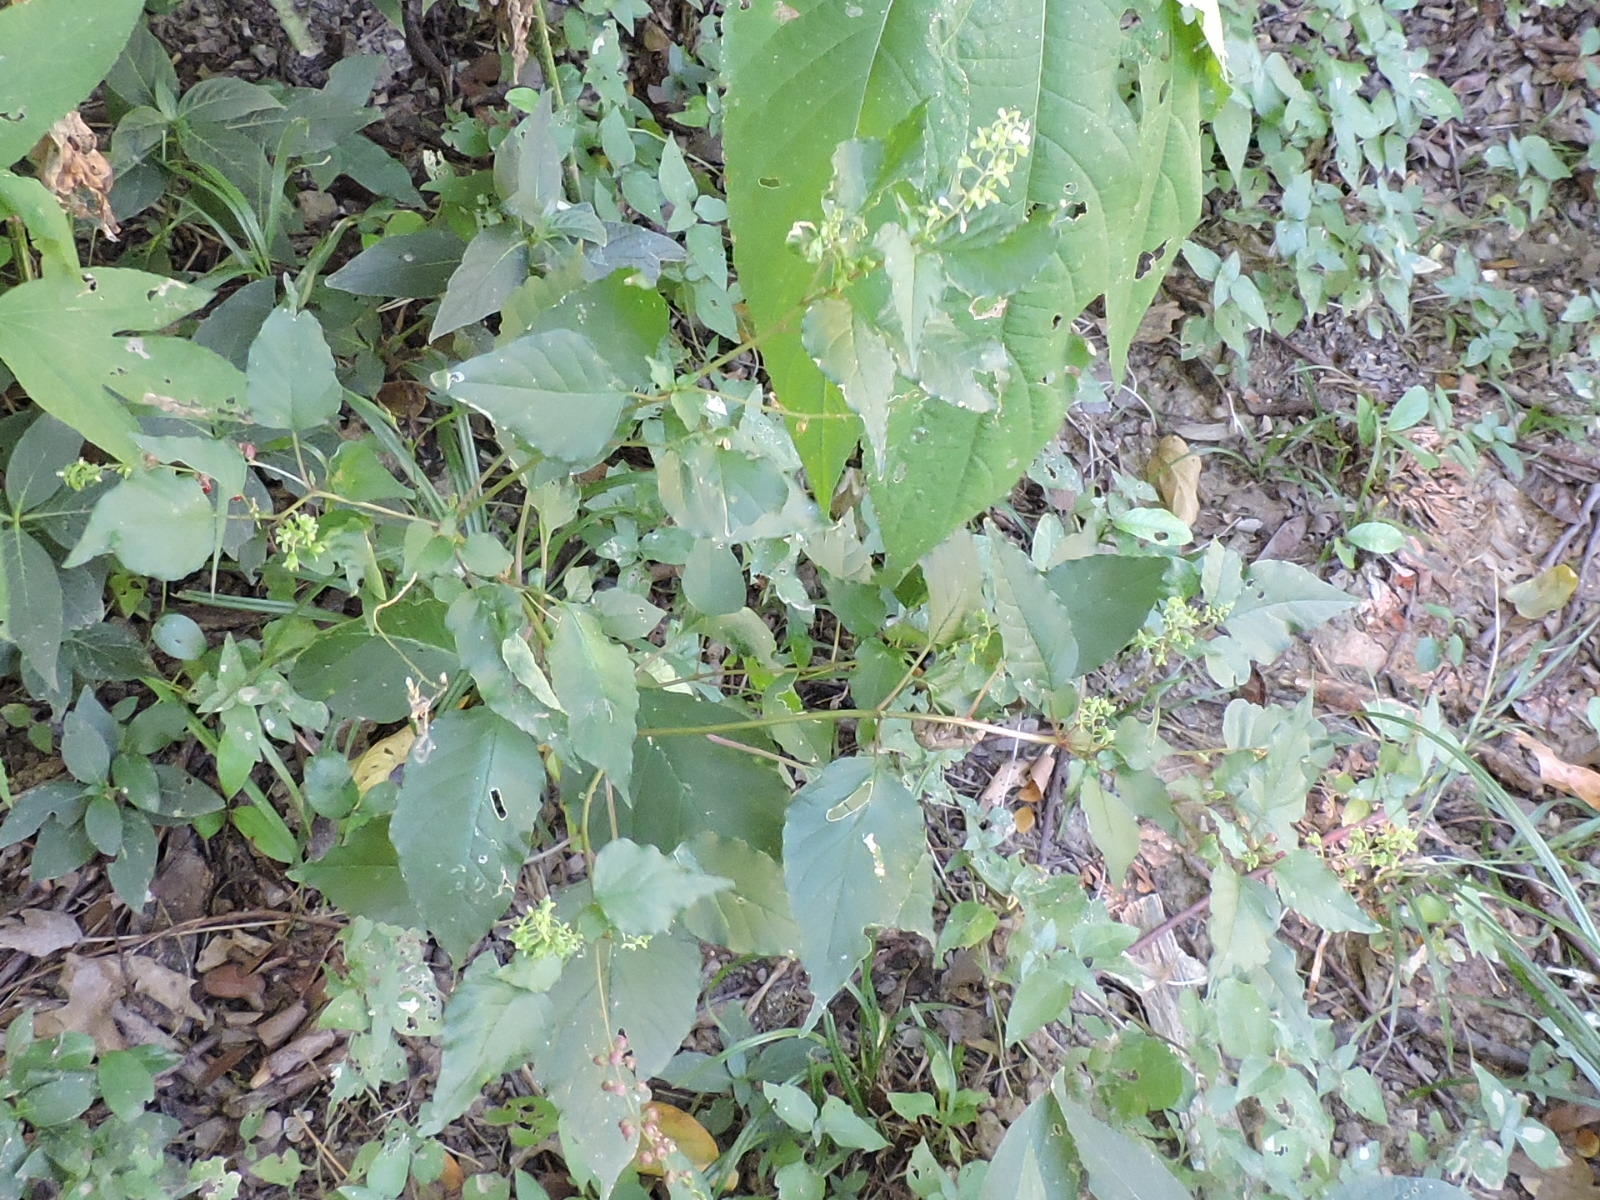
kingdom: Plantae
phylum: Tracheophyta
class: Magnoliopsida
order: Caryophyllales
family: Phytolaccaceae
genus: Rivina
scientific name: Rivina humilis
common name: Rougeplant
